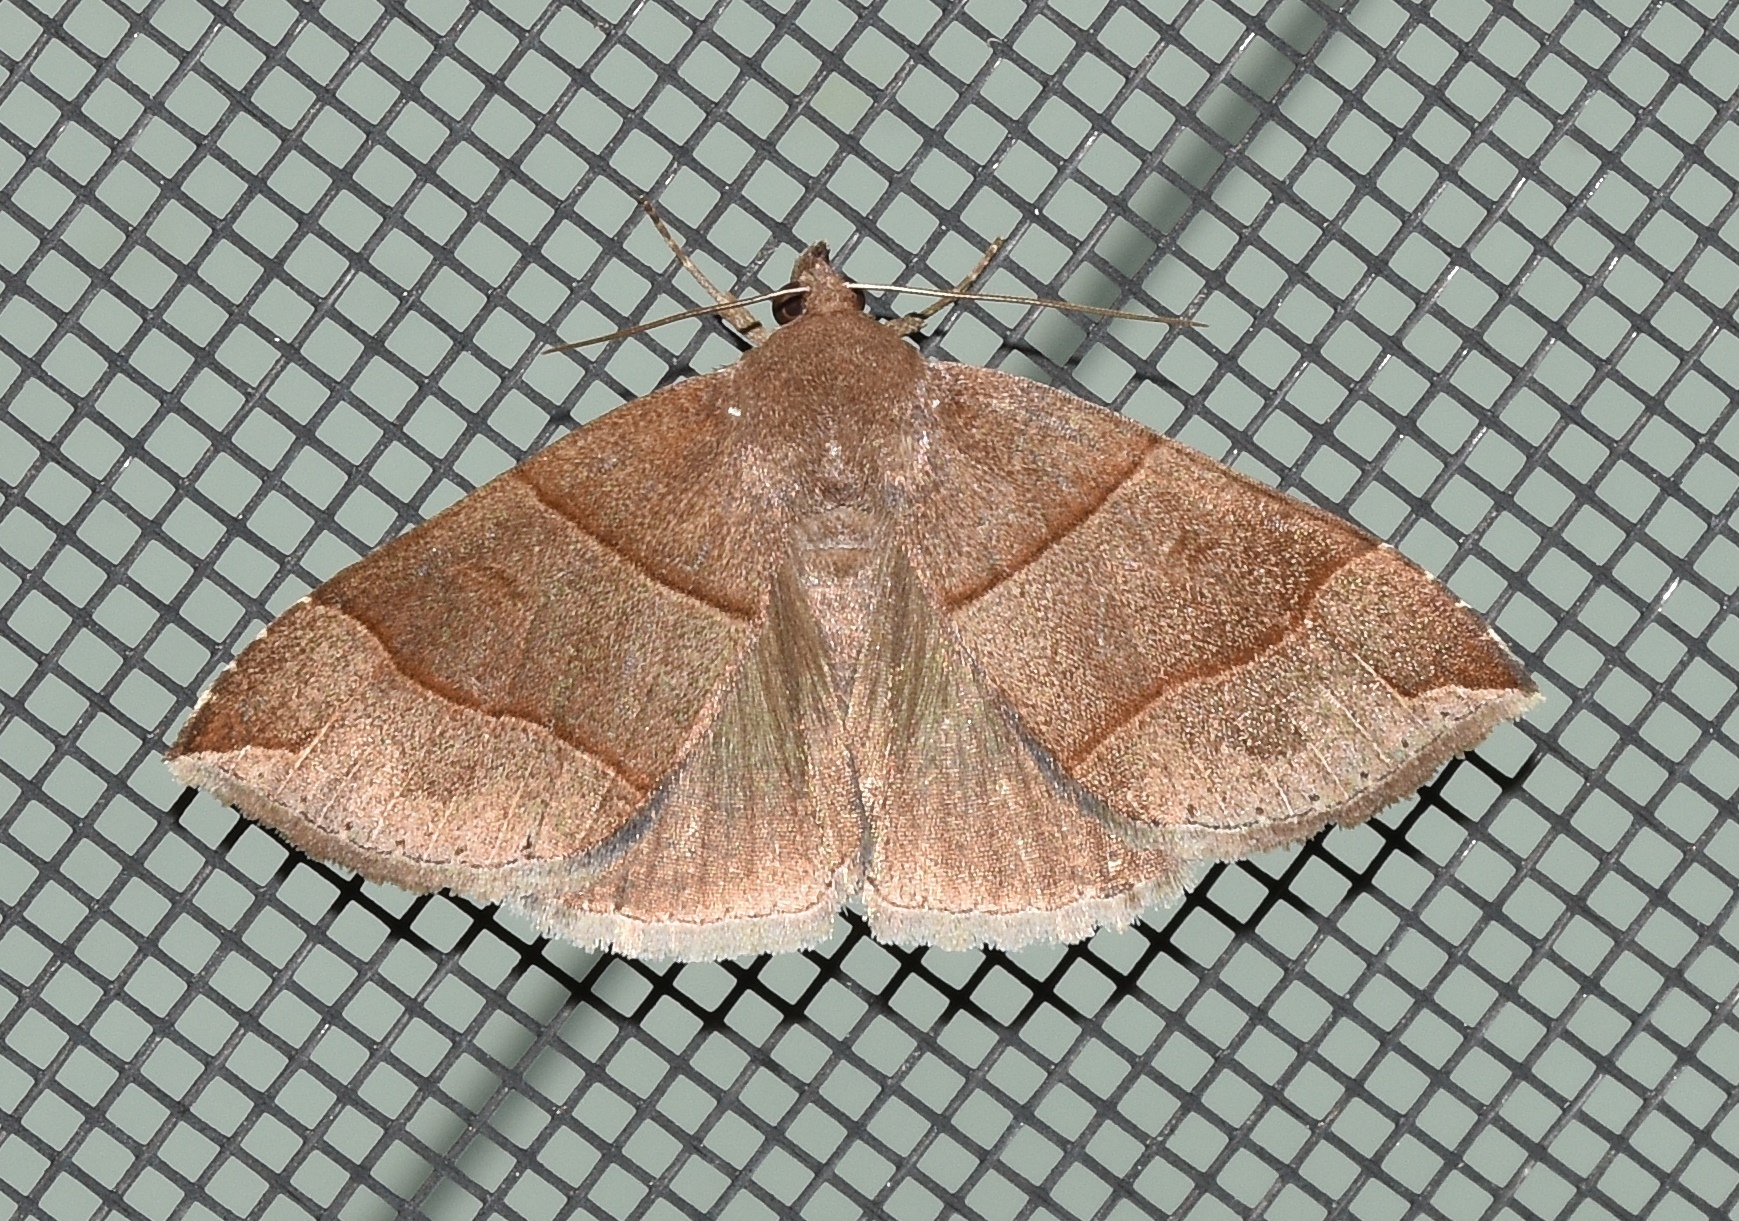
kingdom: Animalia
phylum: Arthropoda
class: Insecta
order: Lepidoptera
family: Erebidae
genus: Parallelia
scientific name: Parallelia bistriaris
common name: Maple looper moth
